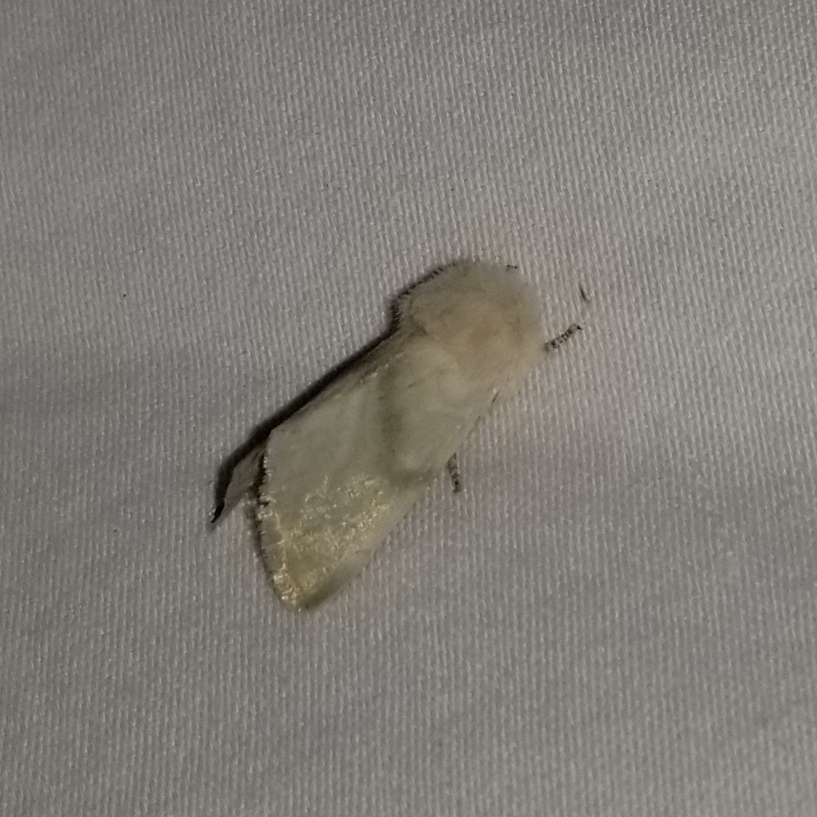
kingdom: Animalia
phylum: Arthropoda
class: Insecta
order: Lepidoptera
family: Noctuidae
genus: Nocloa
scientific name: Nocloa pallens
